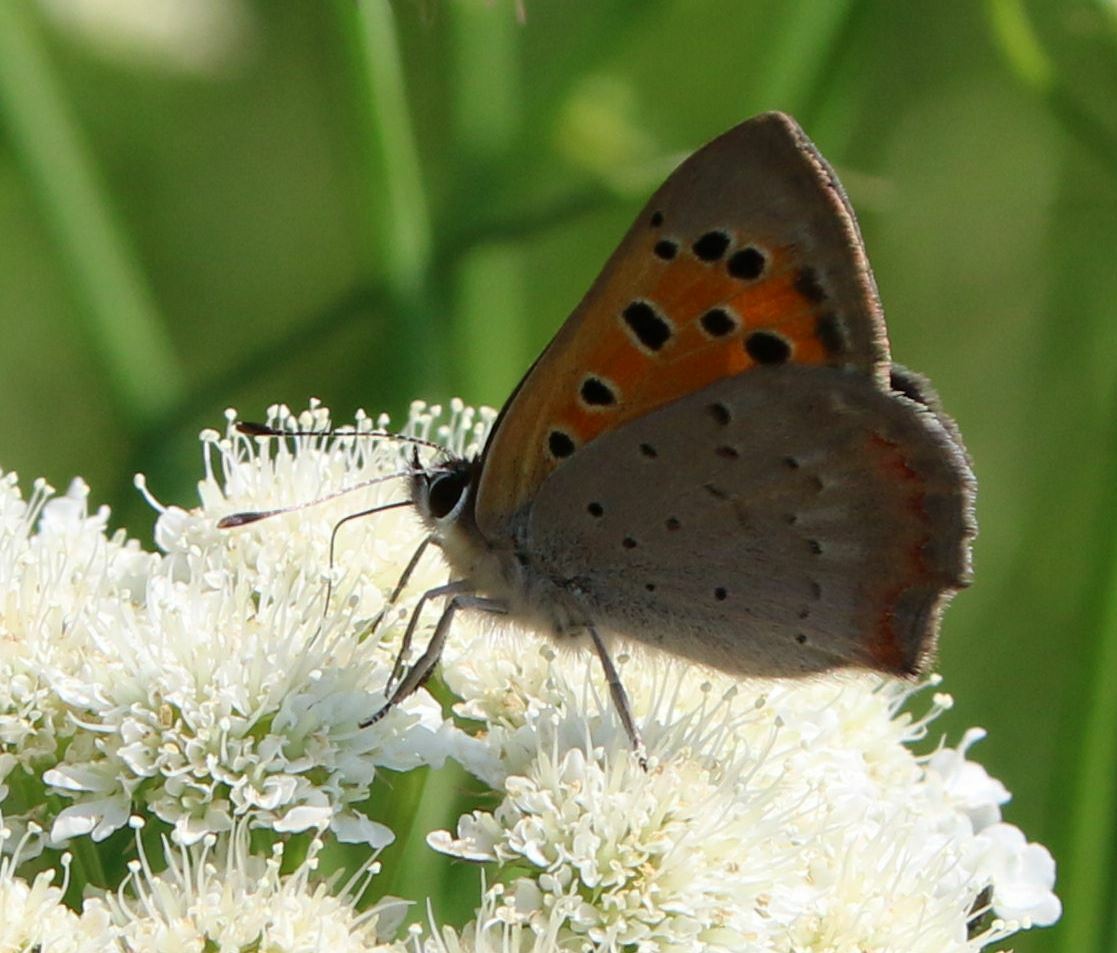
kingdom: Animalia
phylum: Arthropoda
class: Insecta
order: Lepidoptera
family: Lycaenidae
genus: Lycaena
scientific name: Lycaena phlaeas
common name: Small copper
